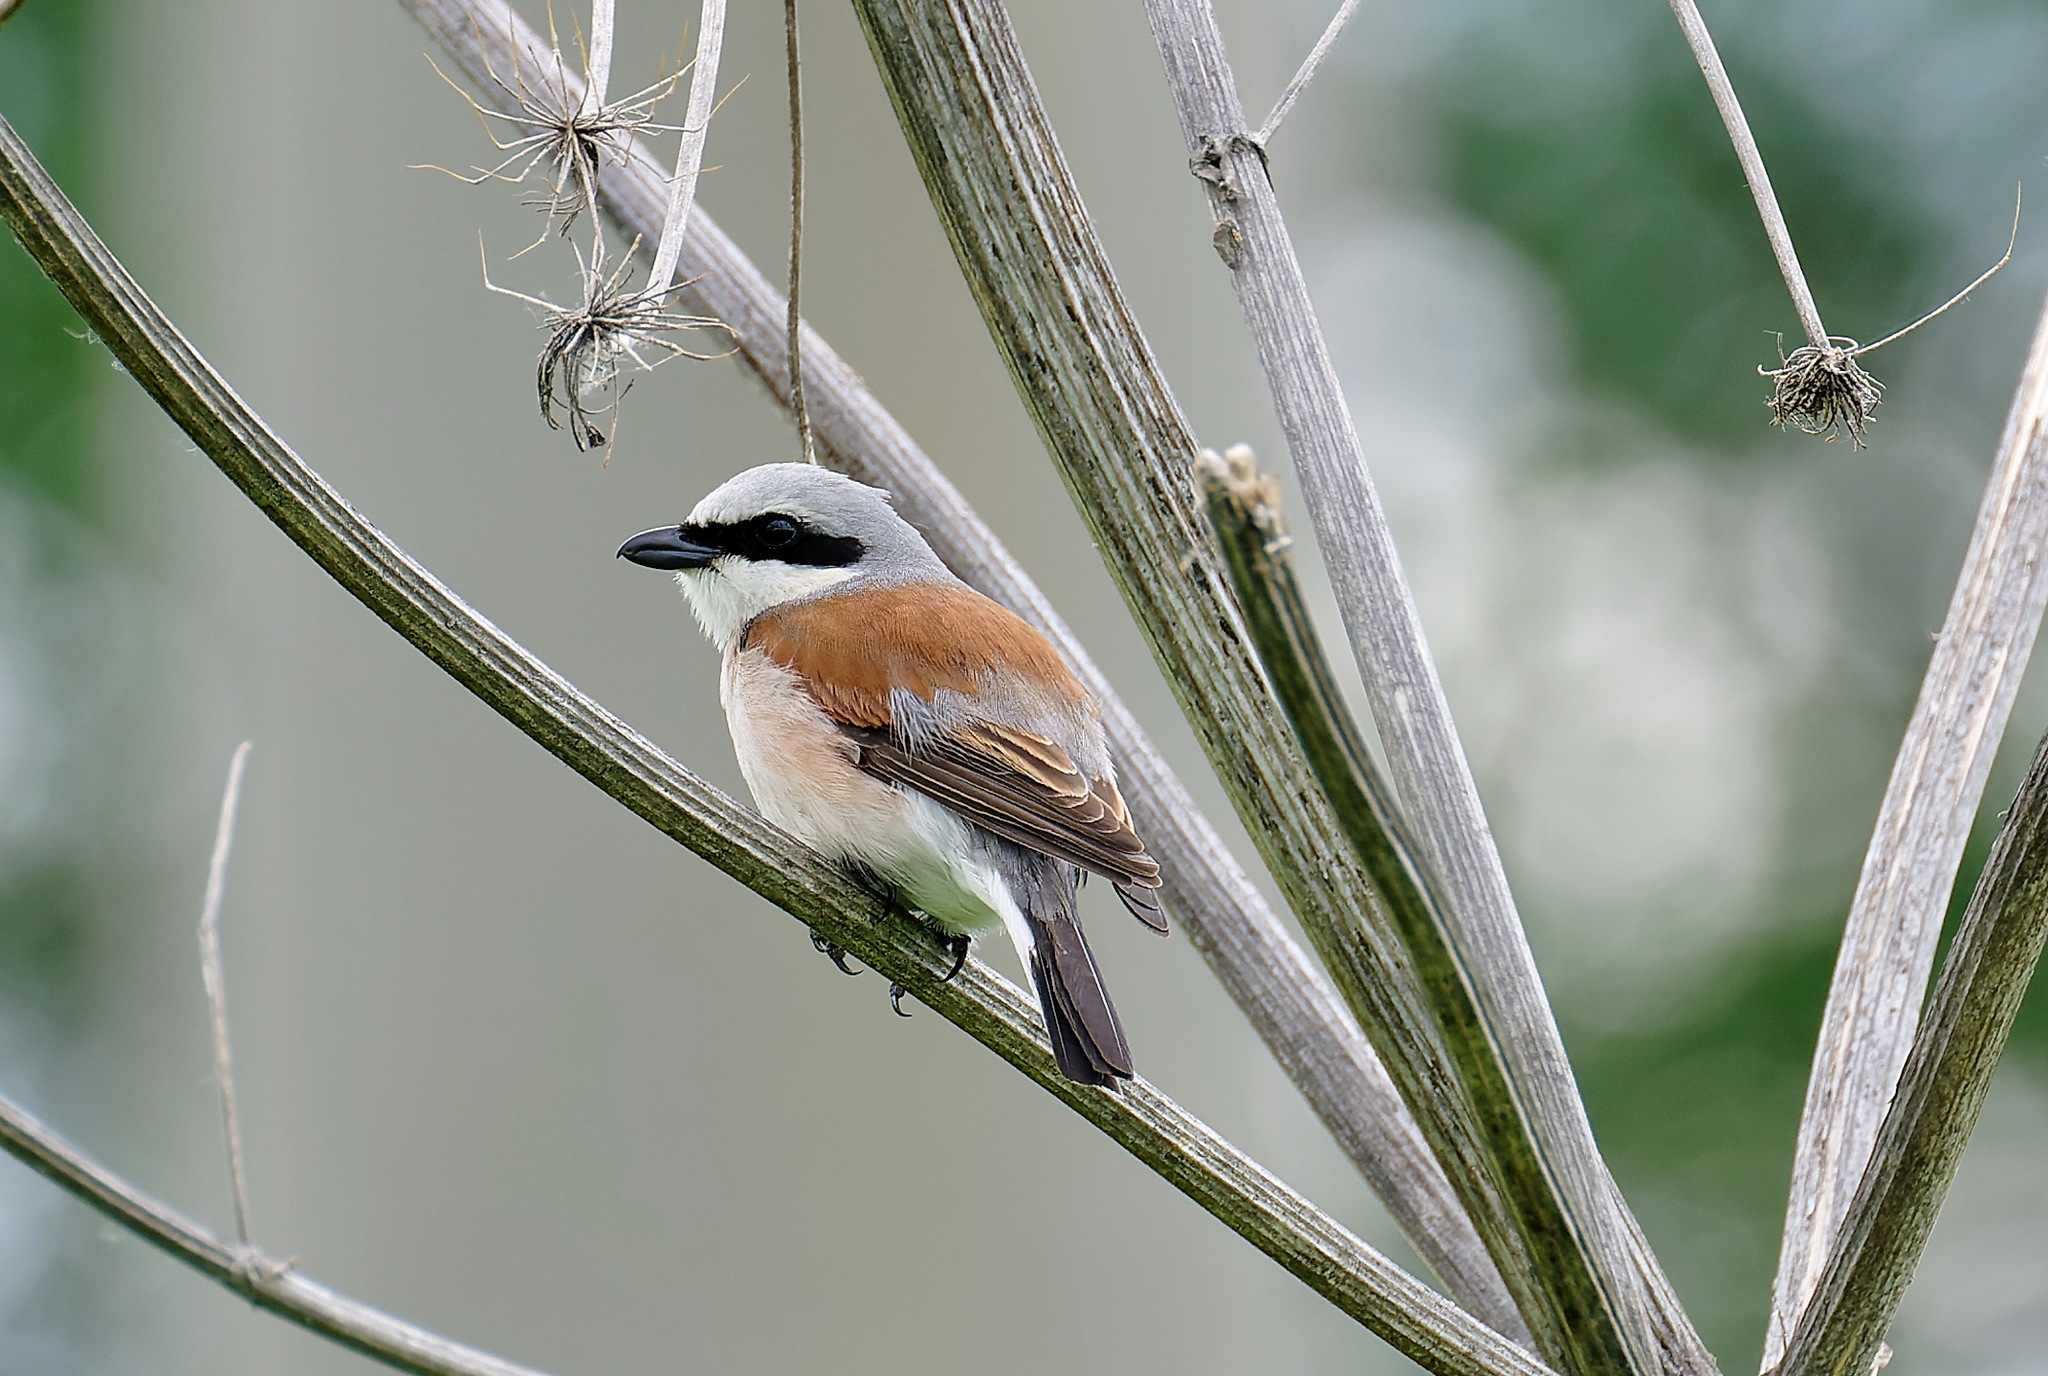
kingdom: Animalia
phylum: Chordata
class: Aves
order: Passeriformes
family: Laniidae
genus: Lanius
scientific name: Lanius collurio
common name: Red-backed shrike
